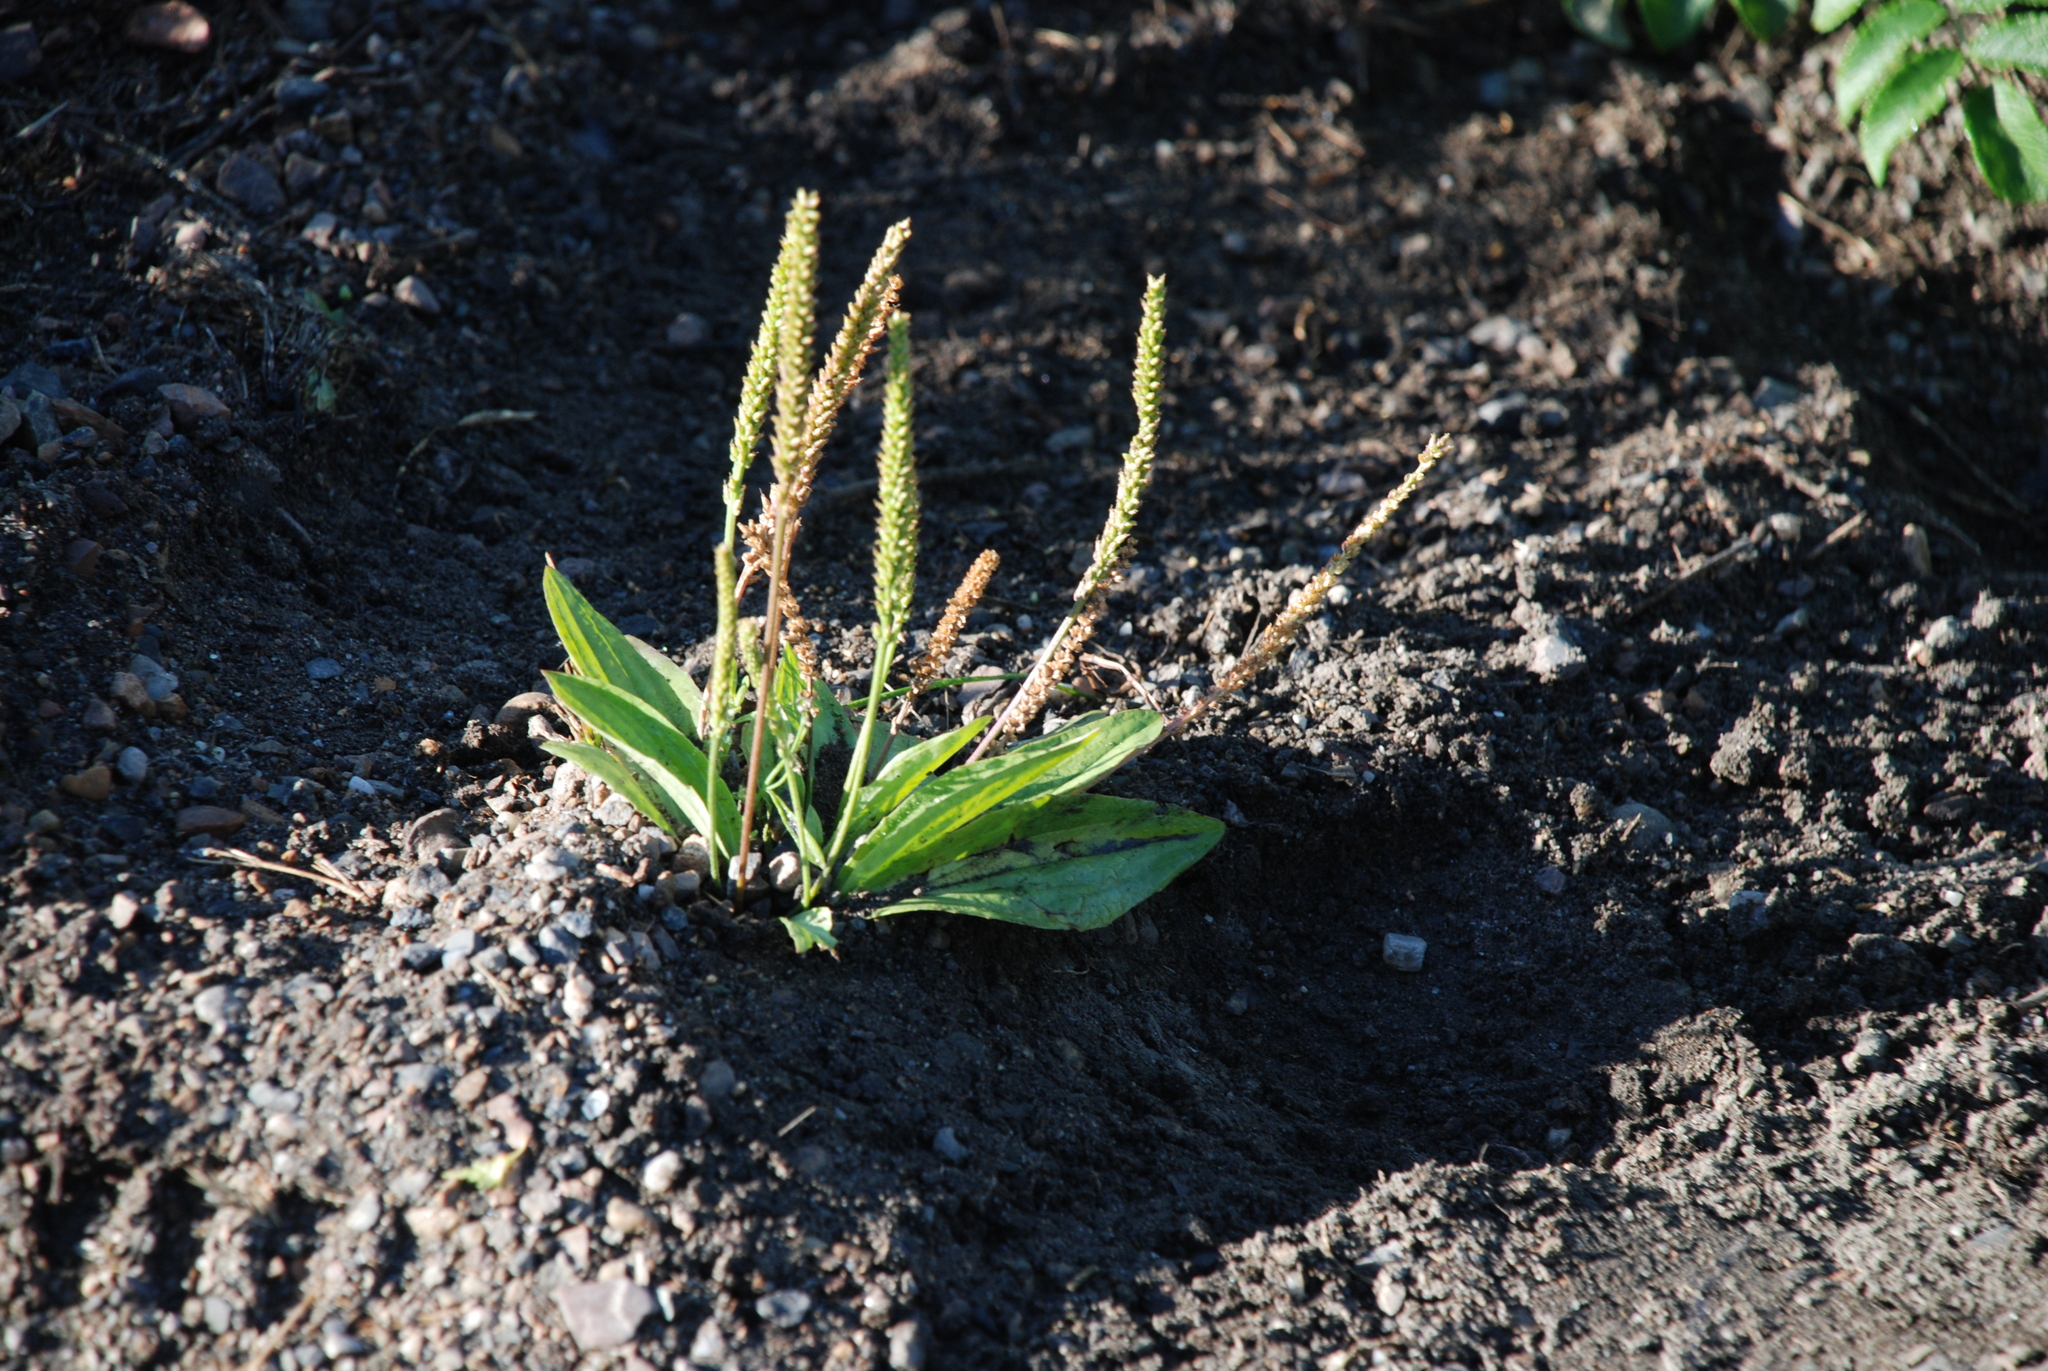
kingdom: Plantae
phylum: Tracheophyta
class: Magnoliopsida
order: Lamiales
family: Plantaginaceae
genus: Plantago
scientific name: Plantago depressa
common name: Depressed plantain
